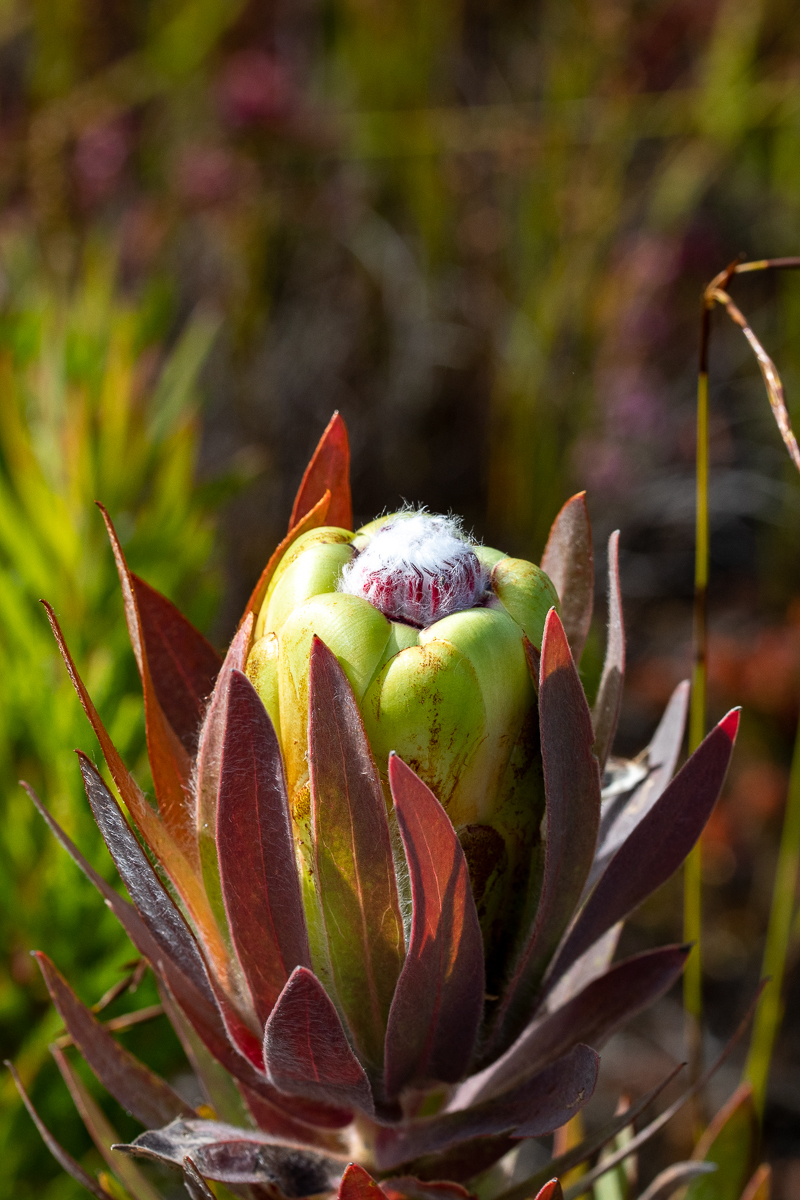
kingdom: Plantae
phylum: Tracheophyta
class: Magnoliopsida
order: Proteales
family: Proteaceae
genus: Protea
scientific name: Protea coronata
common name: Green sugarbush
